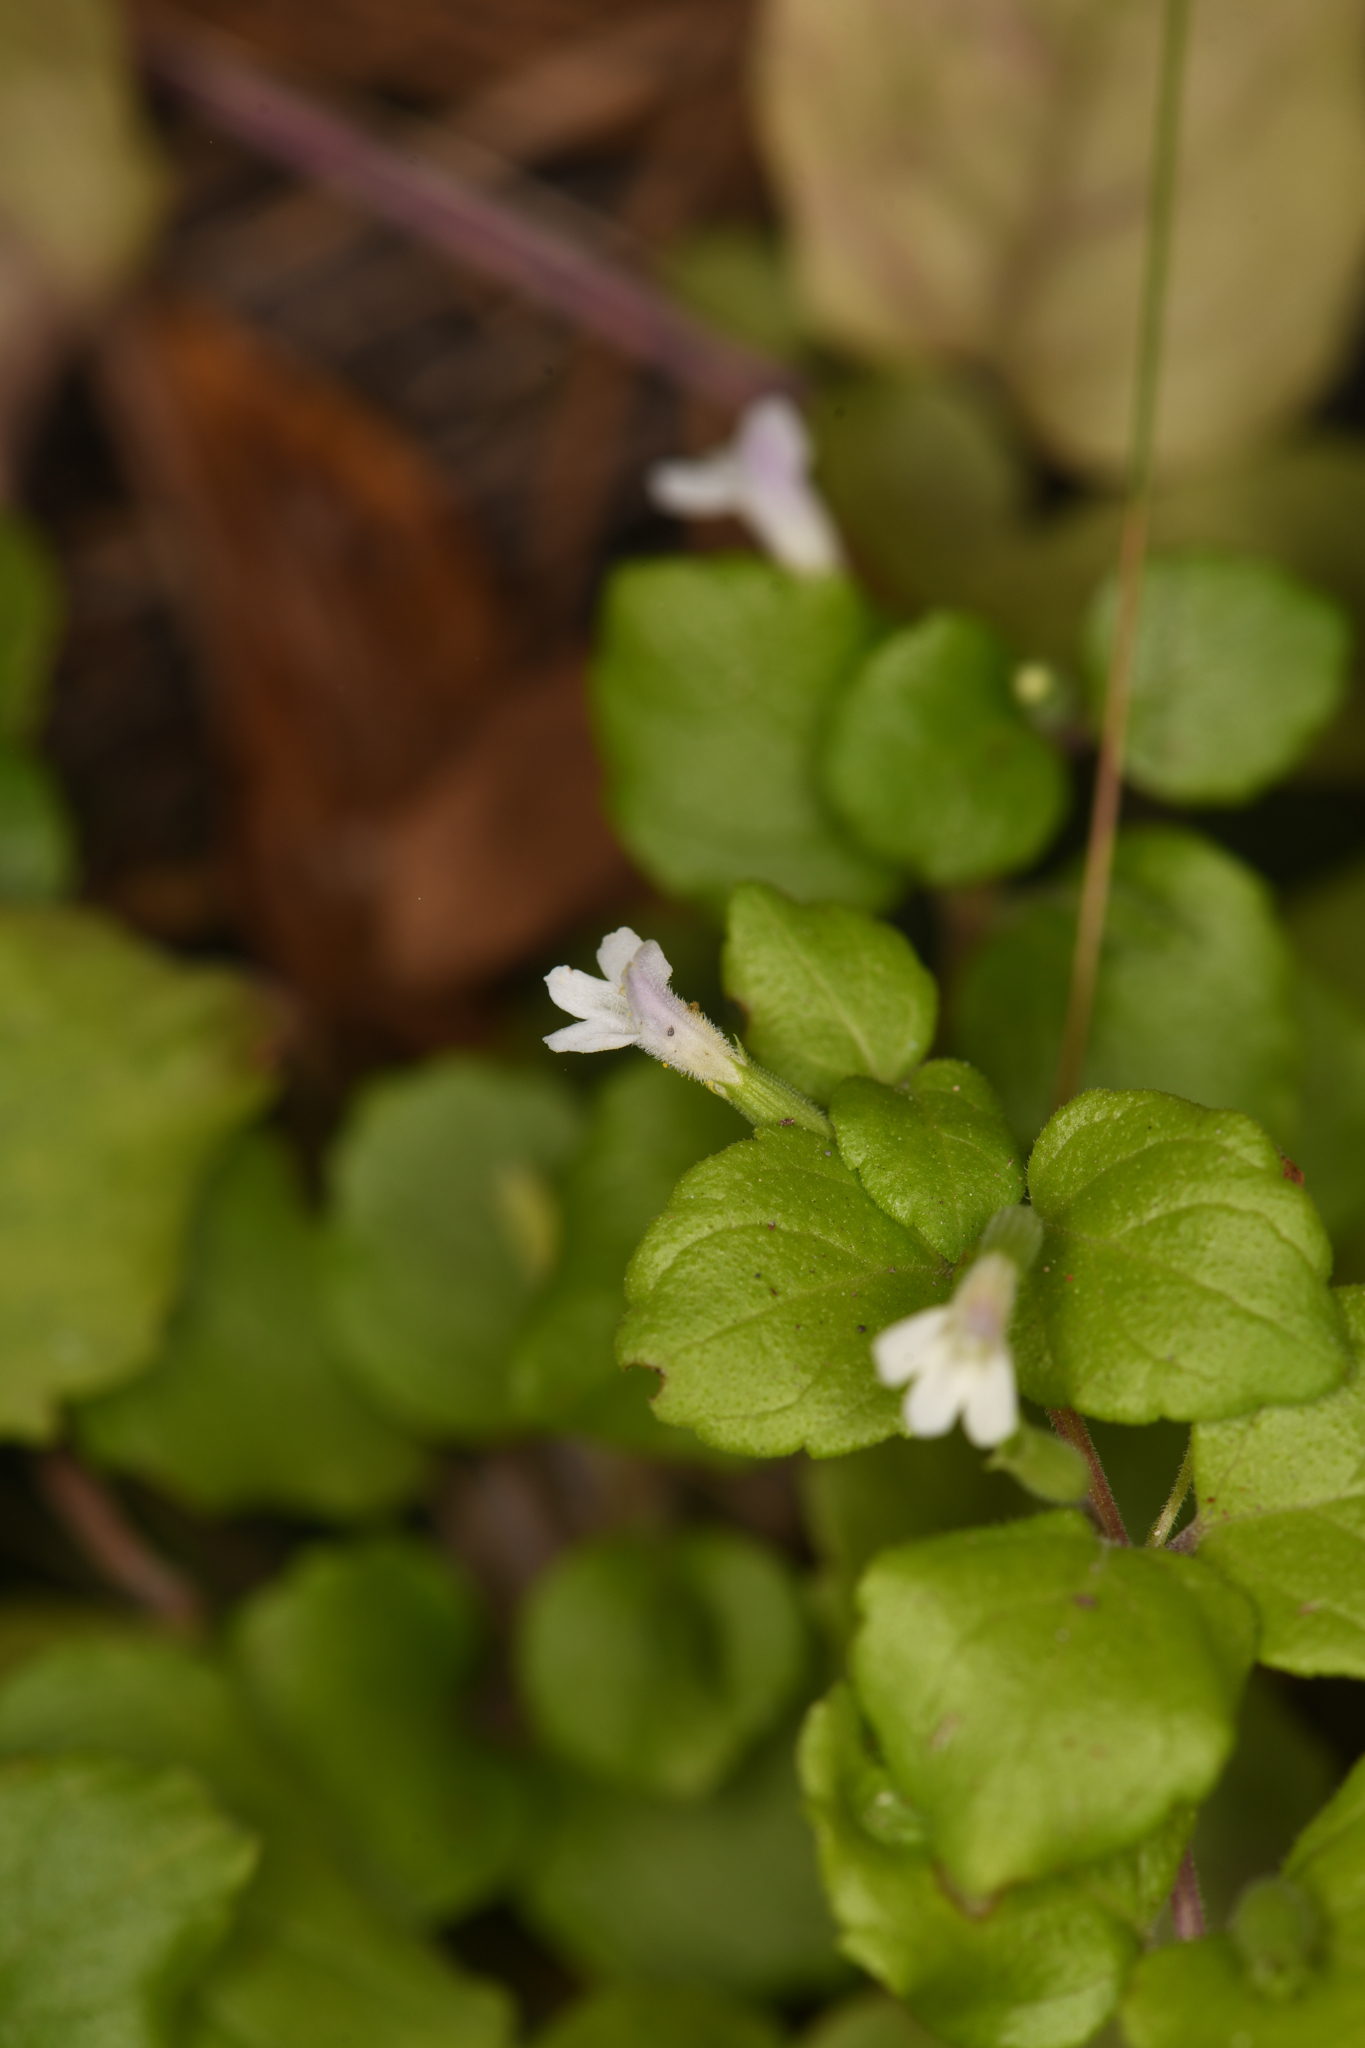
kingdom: Plantae
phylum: Tracheophyta
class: Magnoliopsida
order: Lamiales
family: Lamiaceae
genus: Micromeria
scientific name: Micromeria douglasii
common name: Yerba buena
